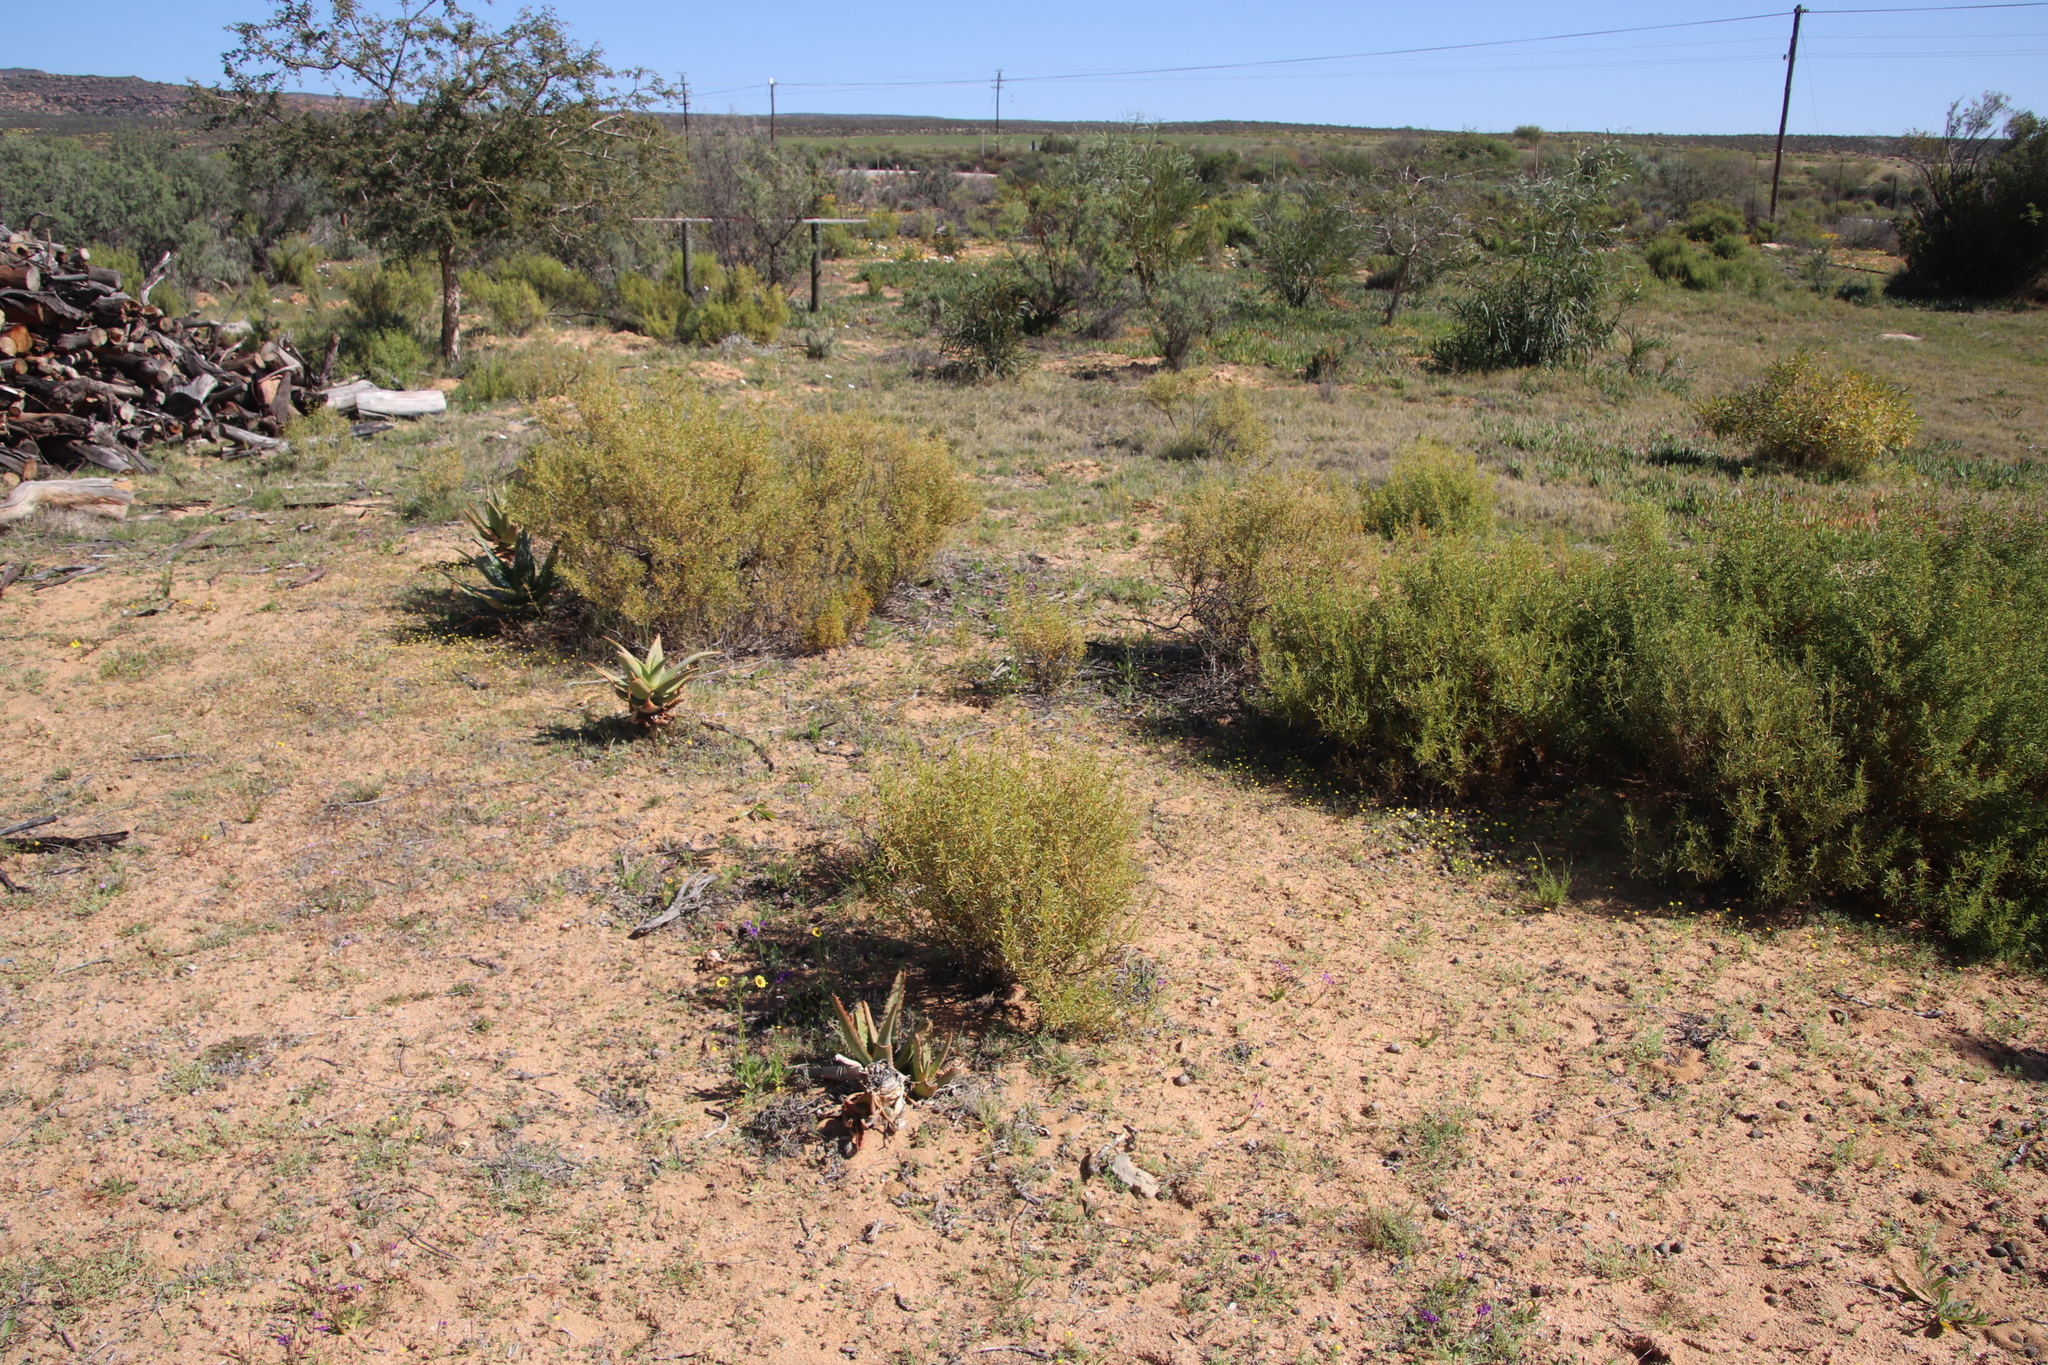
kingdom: Plantae
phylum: Tracheophyta
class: Magnoliopsida
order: Caryophyllales
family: Aizoaceae
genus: Aizoon
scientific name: Aizoon africanum
